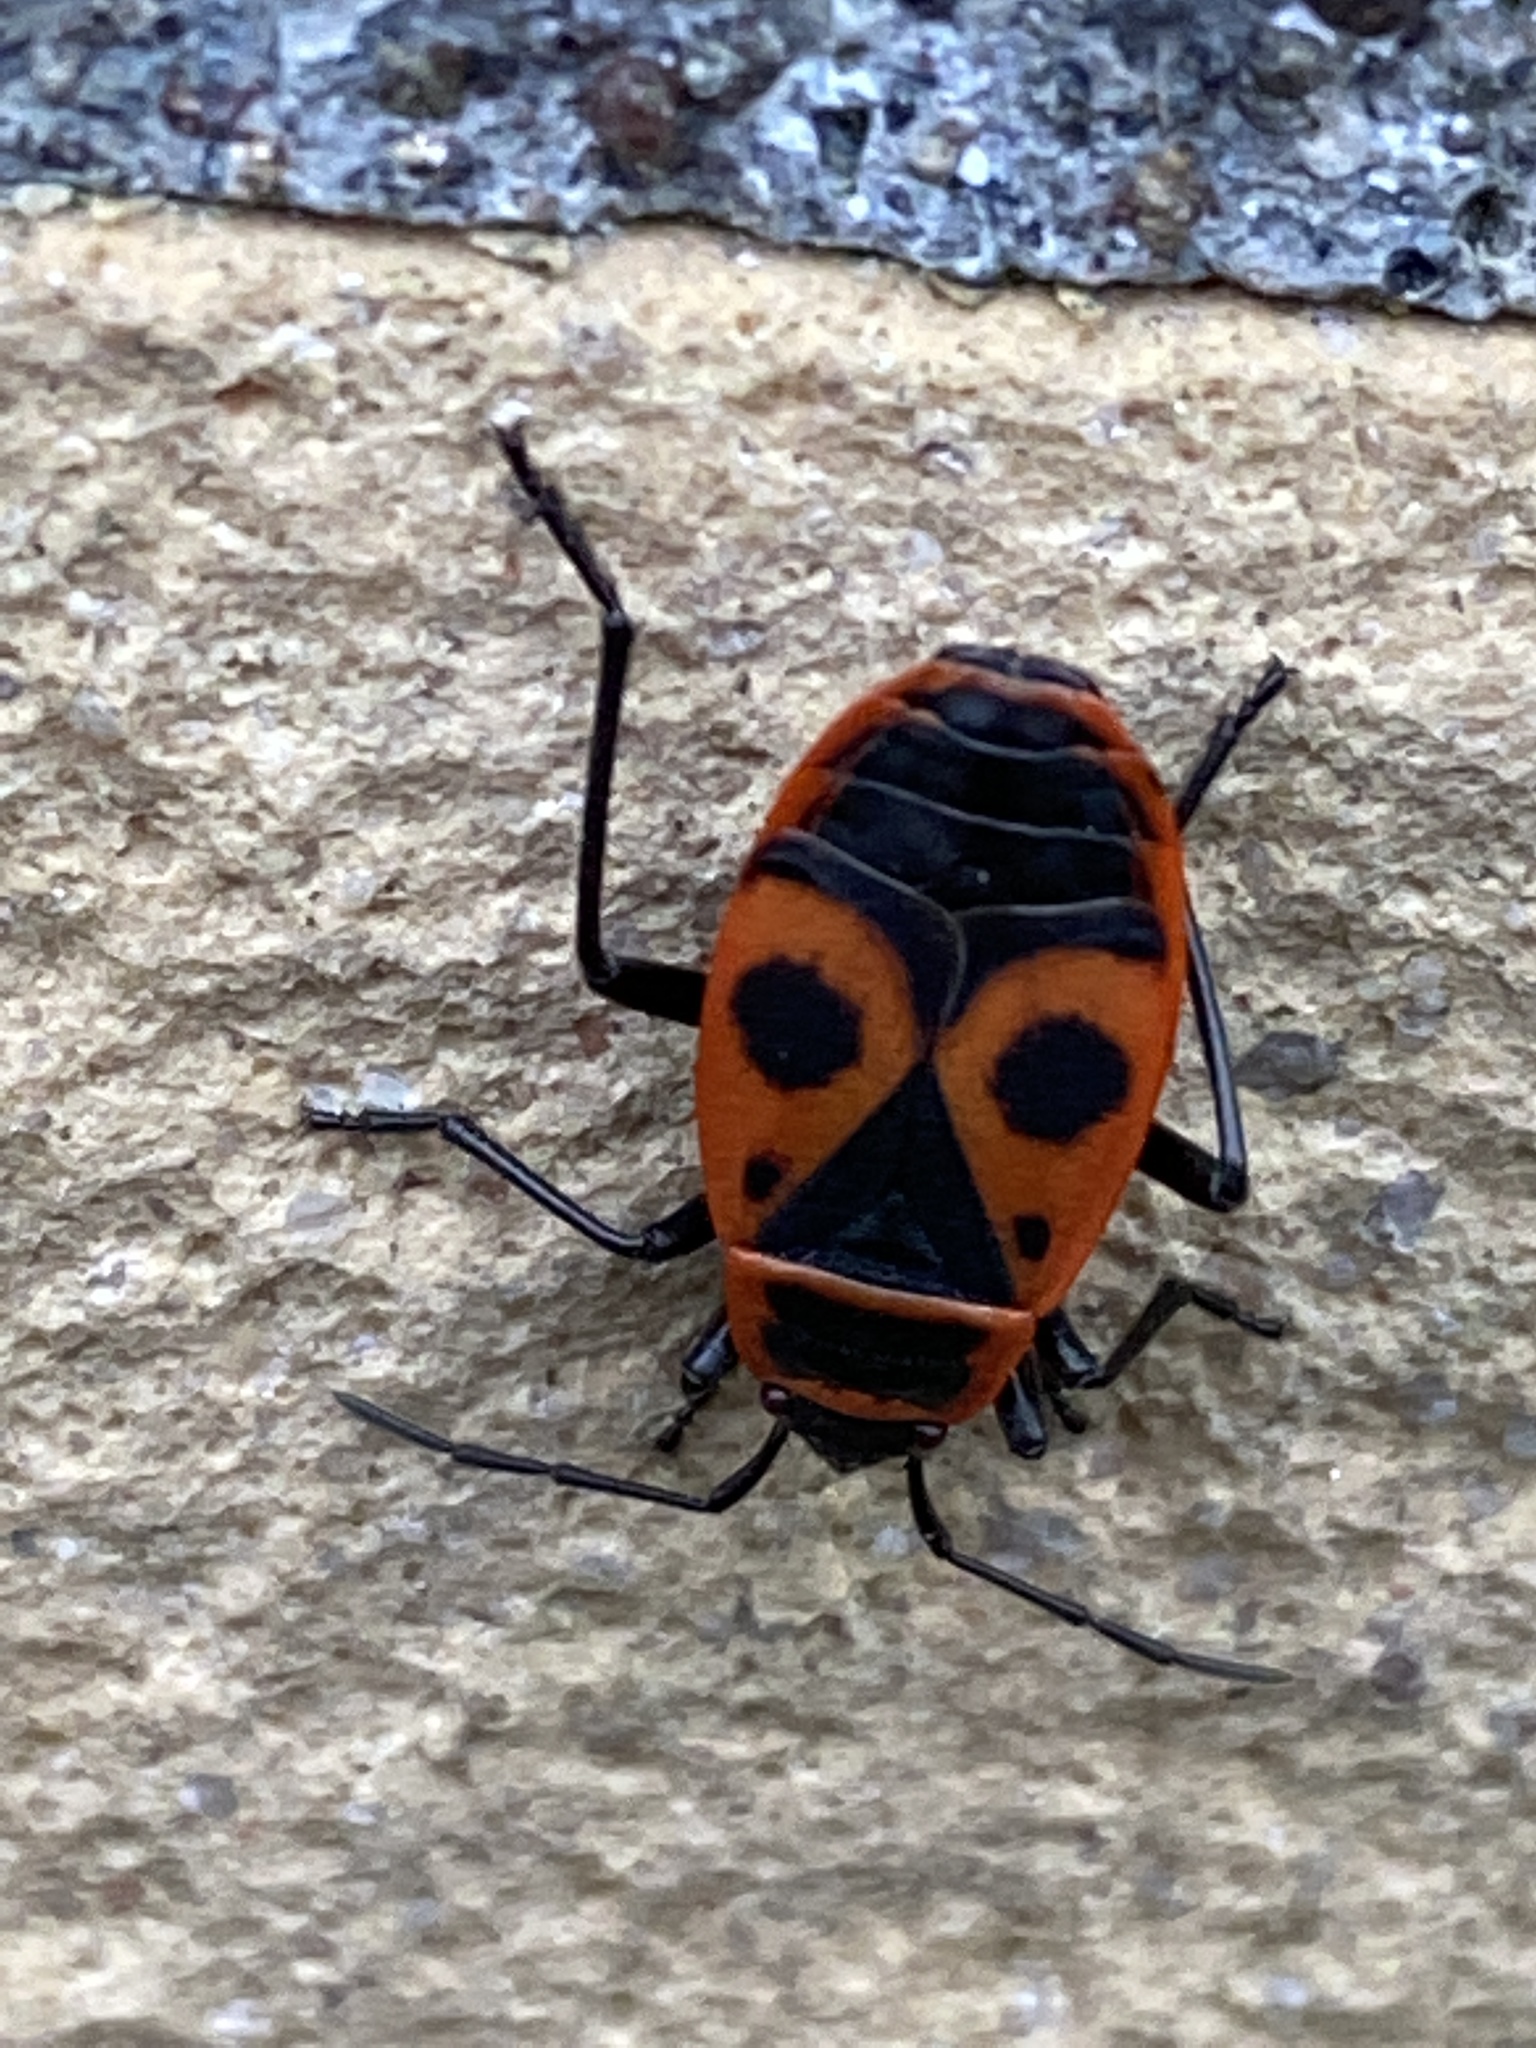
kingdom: Animalia
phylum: Arthropoda
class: Insecta
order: Hemiptera
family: Pyrrhocoridae
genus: Pyrrhocoris
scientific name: Pyrrhocoris apterus
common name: Firebug
